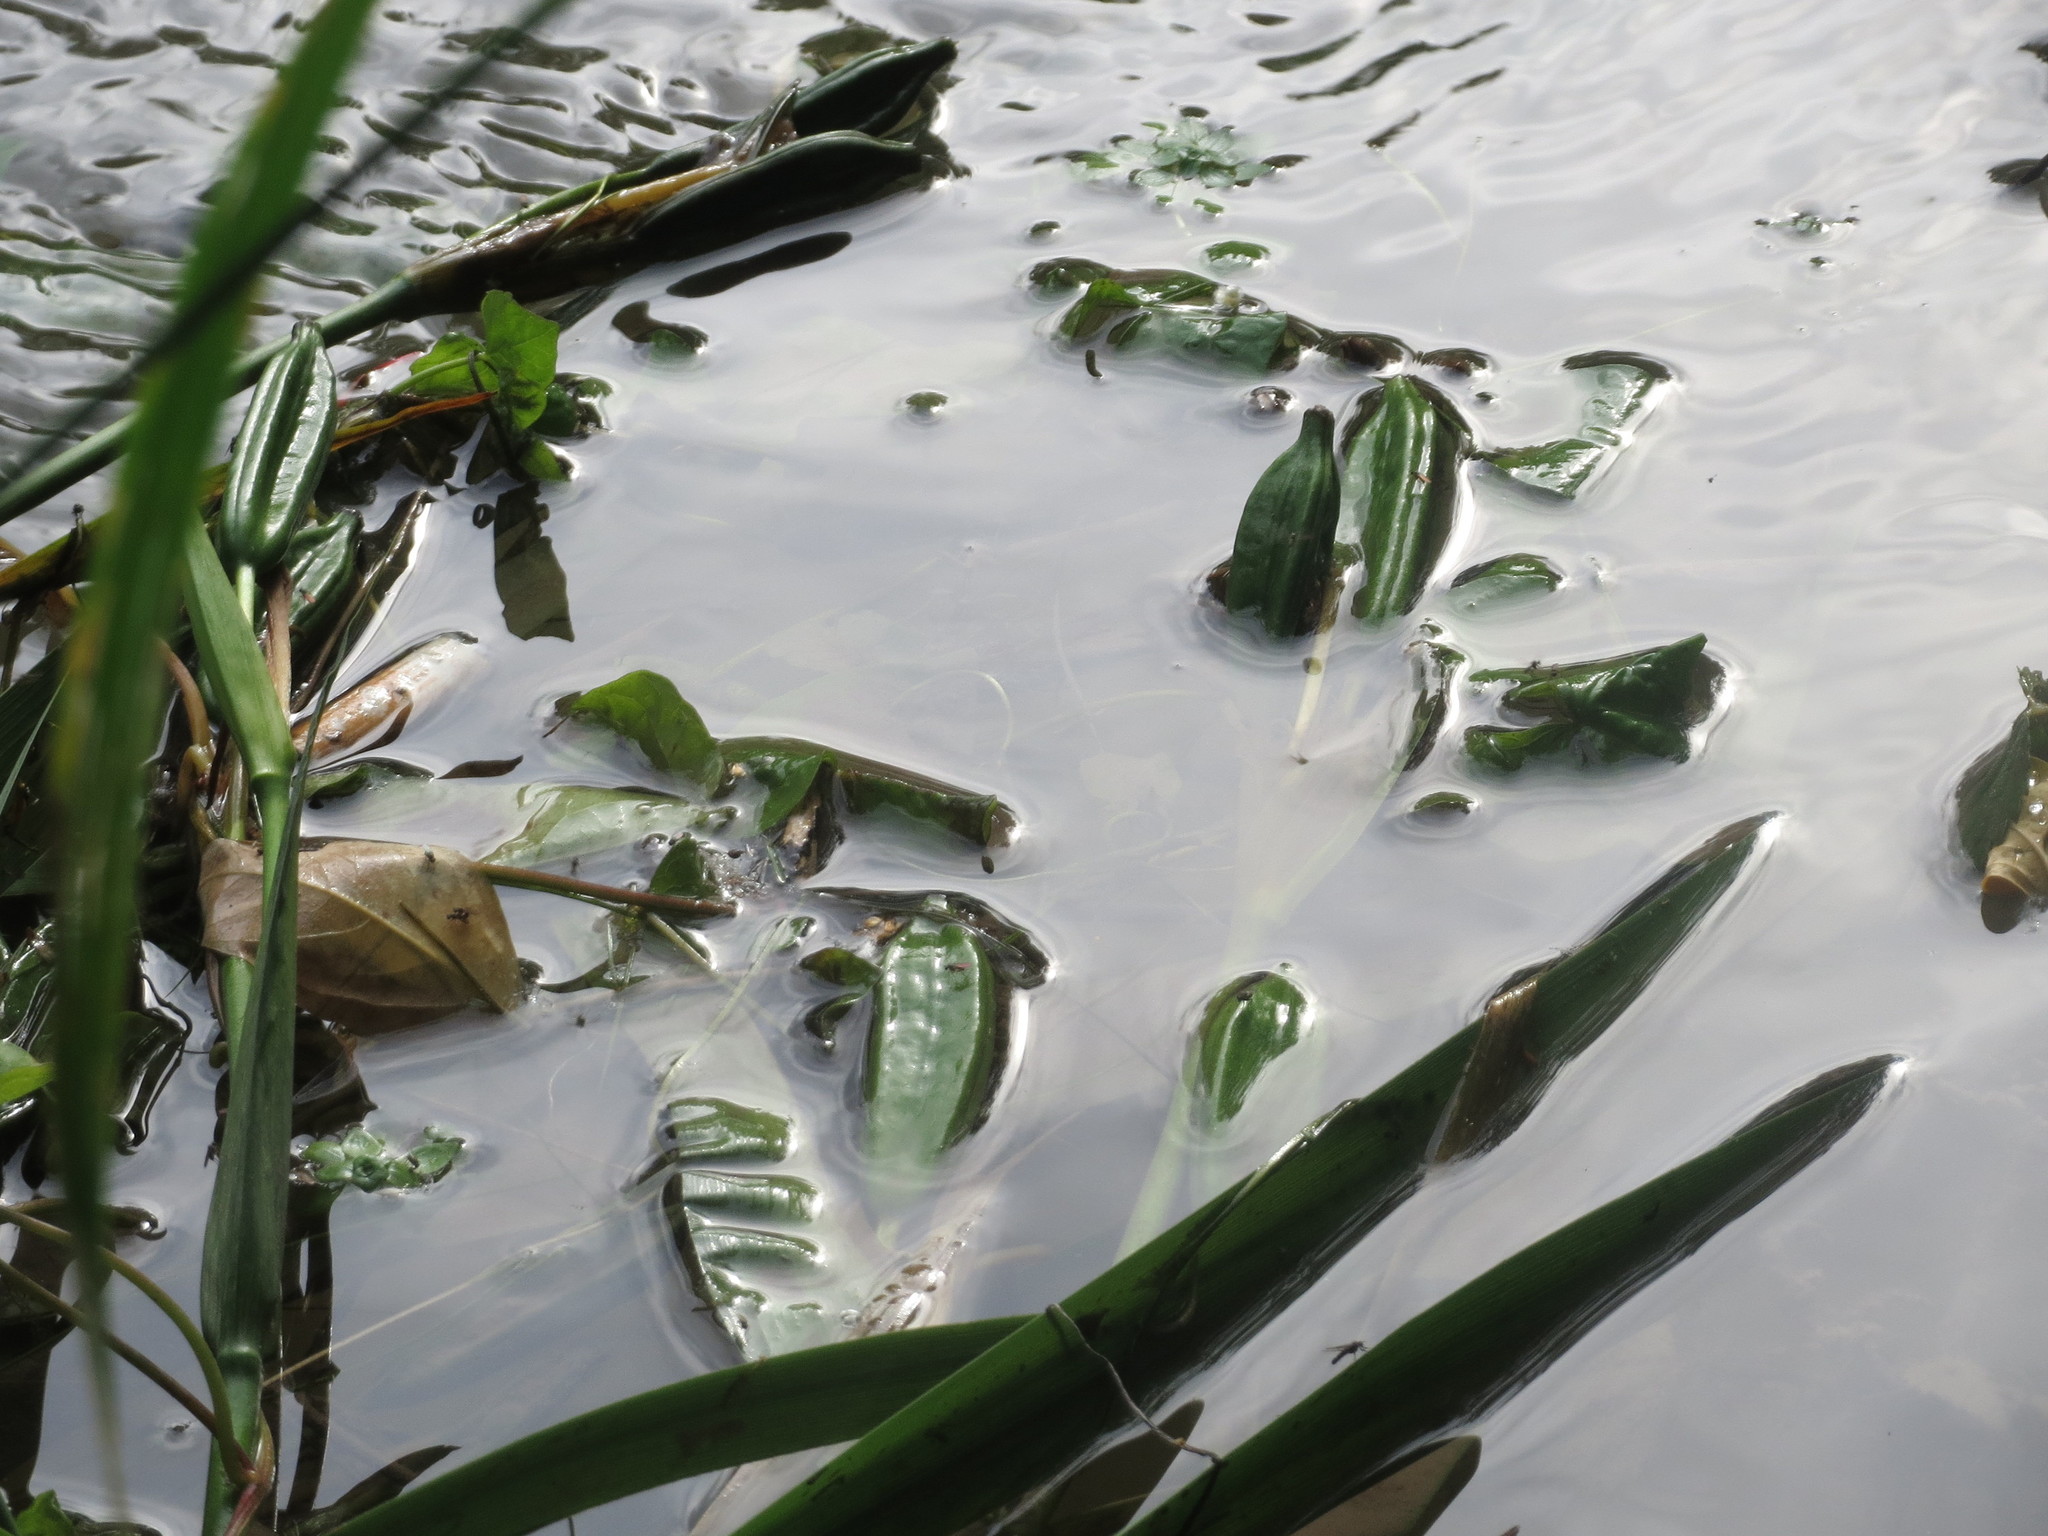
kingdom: Plantae
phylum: Tracheophyta
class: Liliopsida
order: Asparagales
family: Iridaceae
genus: Iris
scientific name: Iris pseudacorus
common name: Yellow flag
